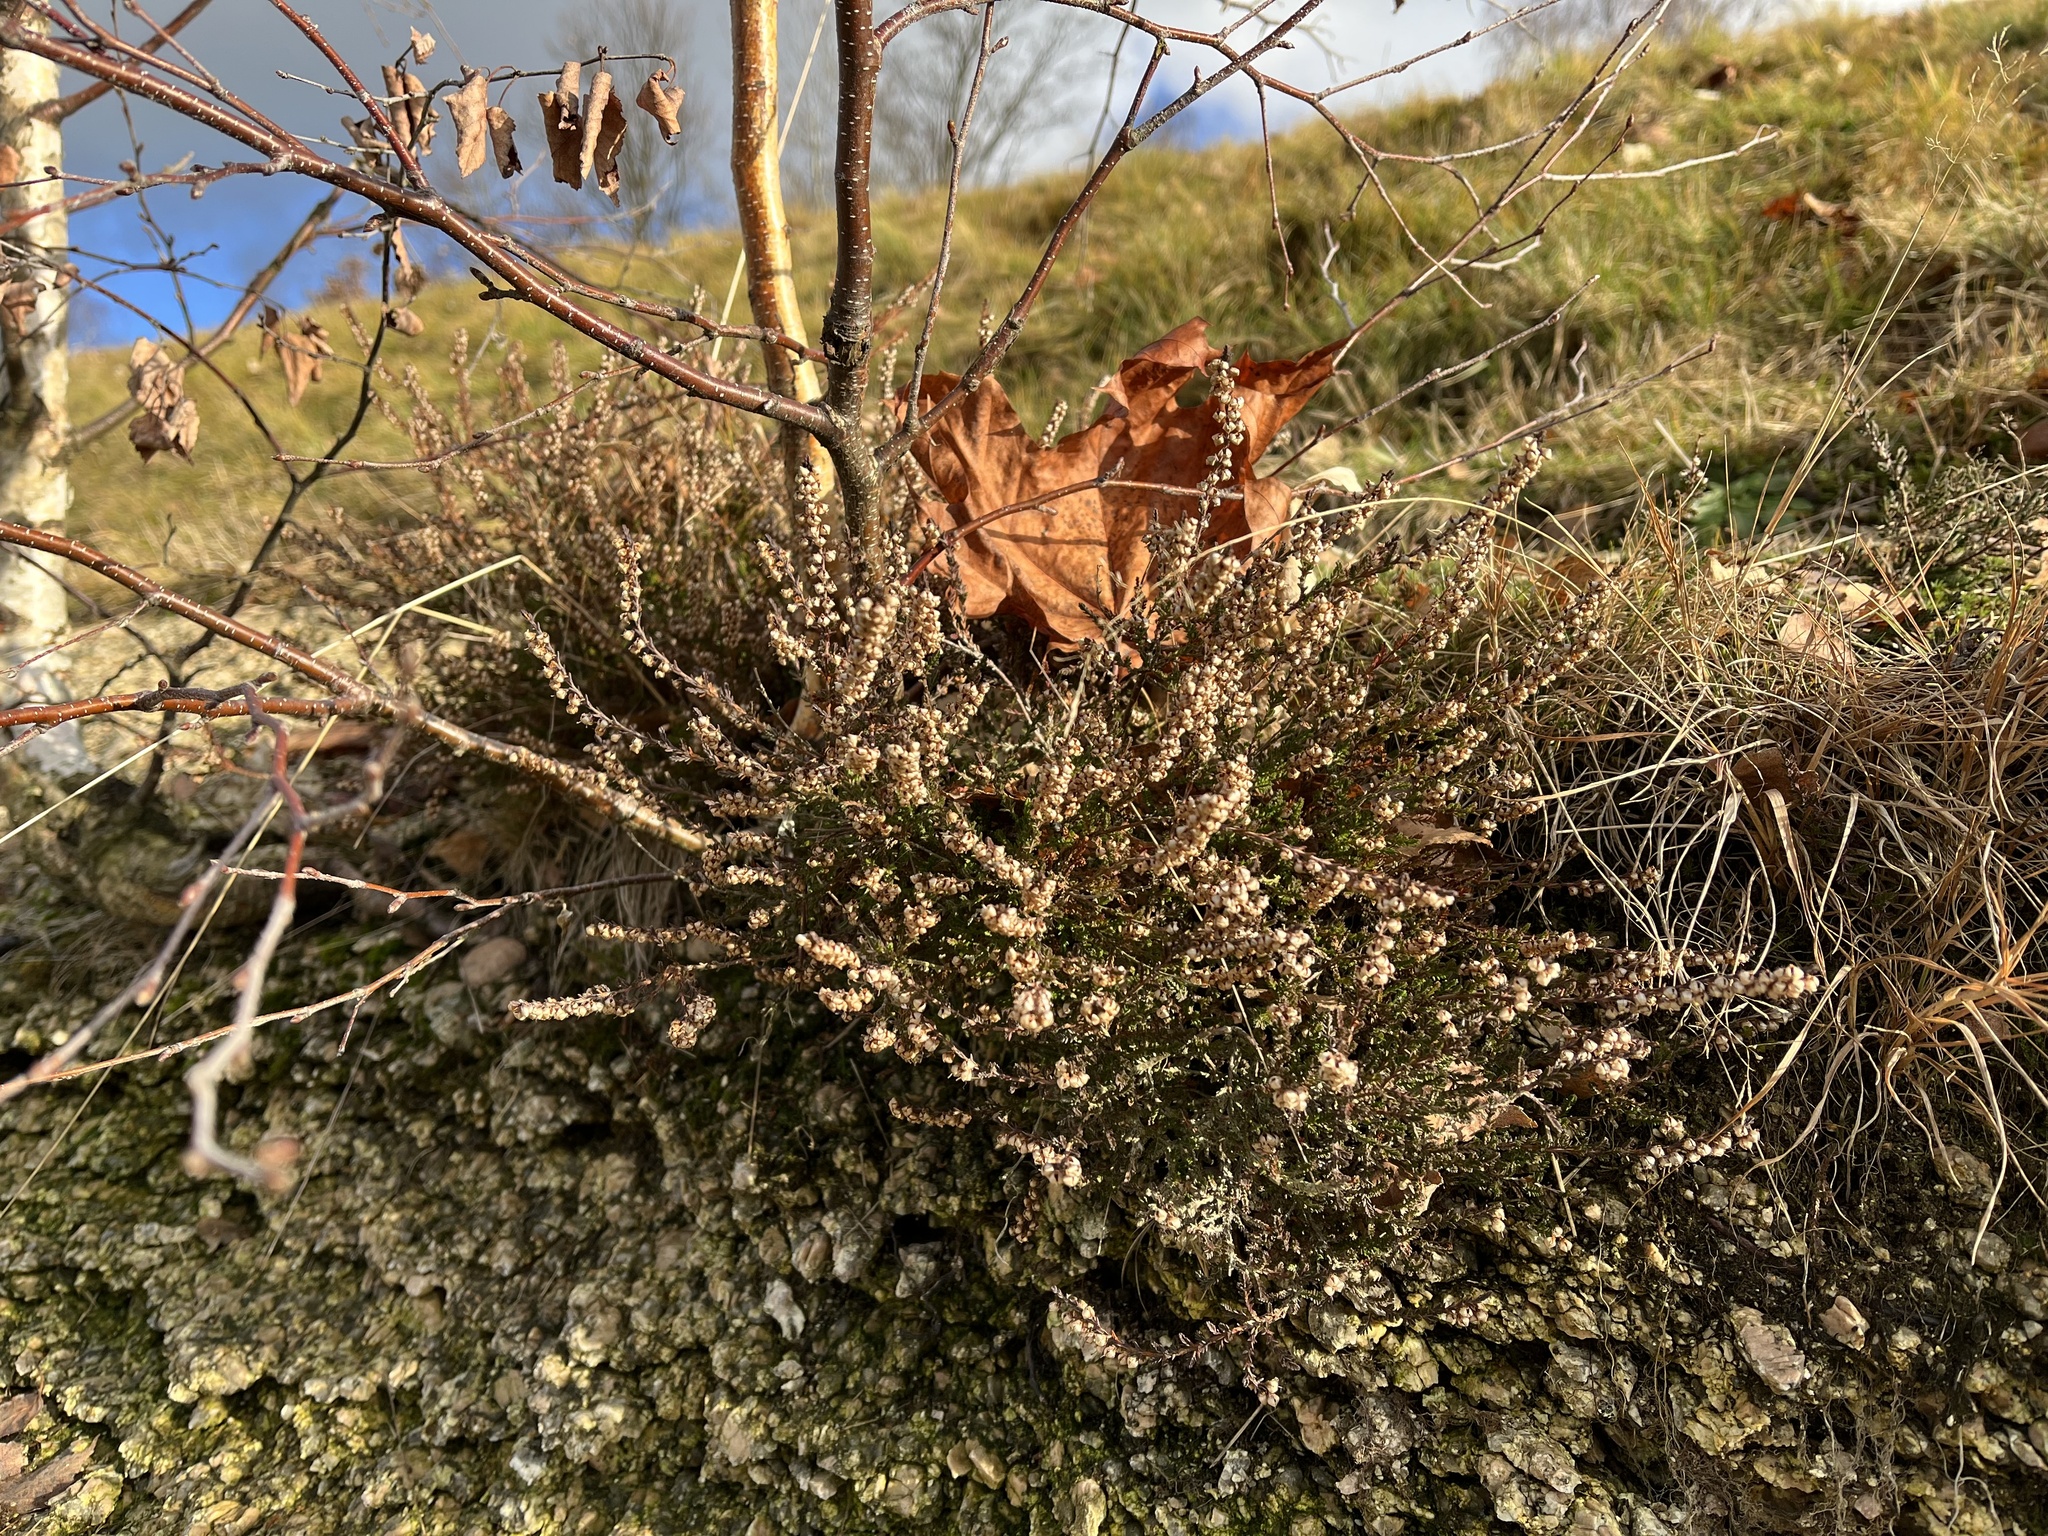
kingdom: Plantae
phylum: Tracheophyta
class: Magnoliopsida
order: Ericales
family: Ericaceae
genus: Calluna
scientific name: Calluna vulgaris
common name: Heather
